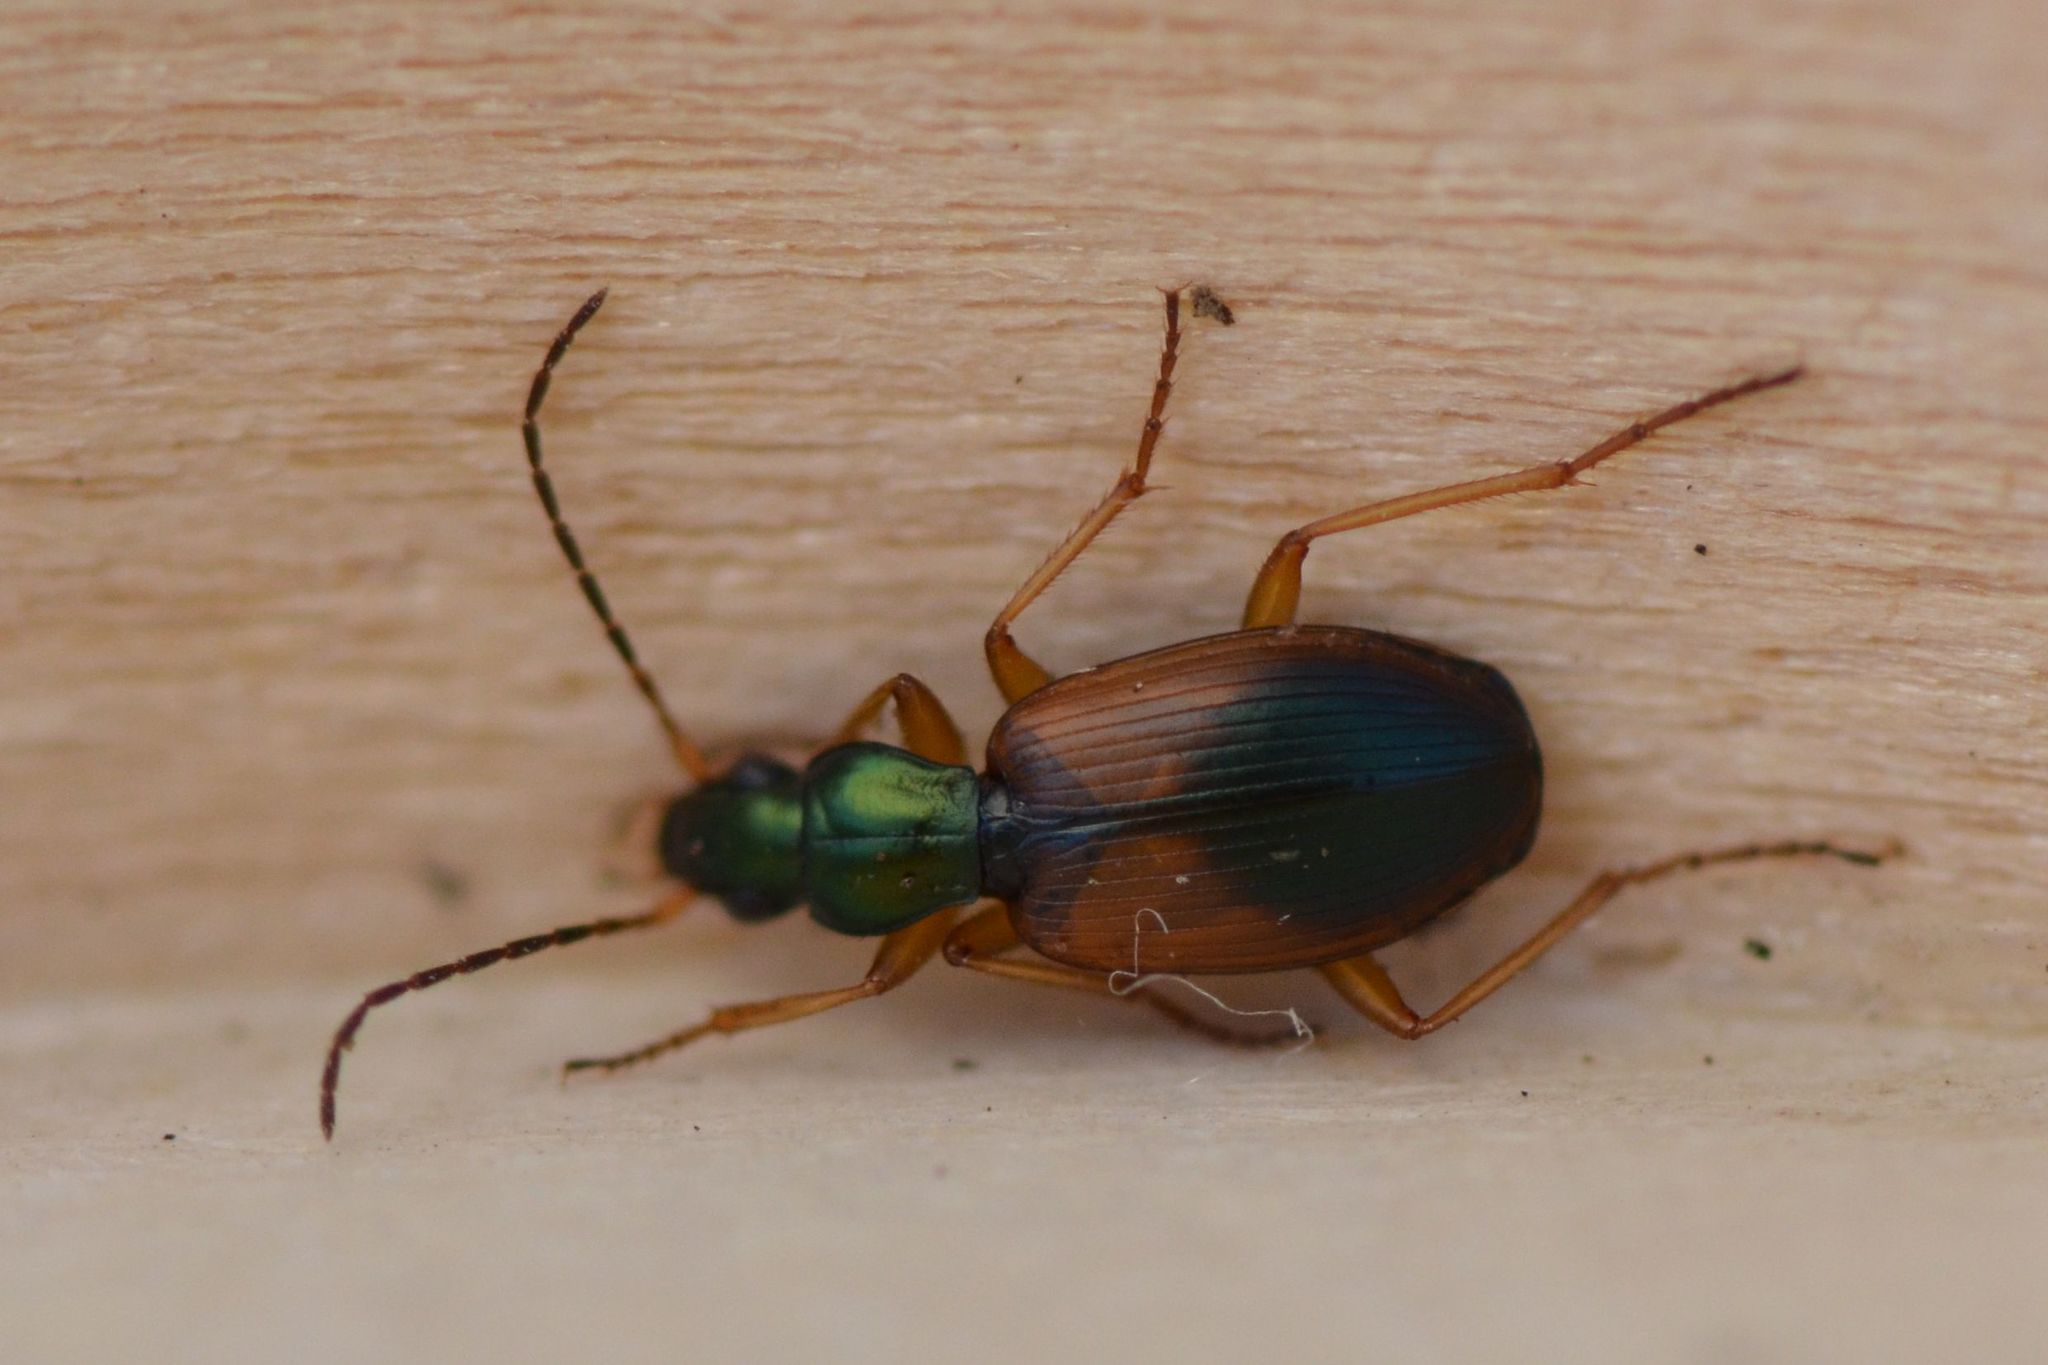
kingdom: Animalia
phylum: Arthropoda
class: Insecta
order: Coleoptera
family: Carabidae
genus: Anchomenus
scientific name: Anchomenus dorsalis
